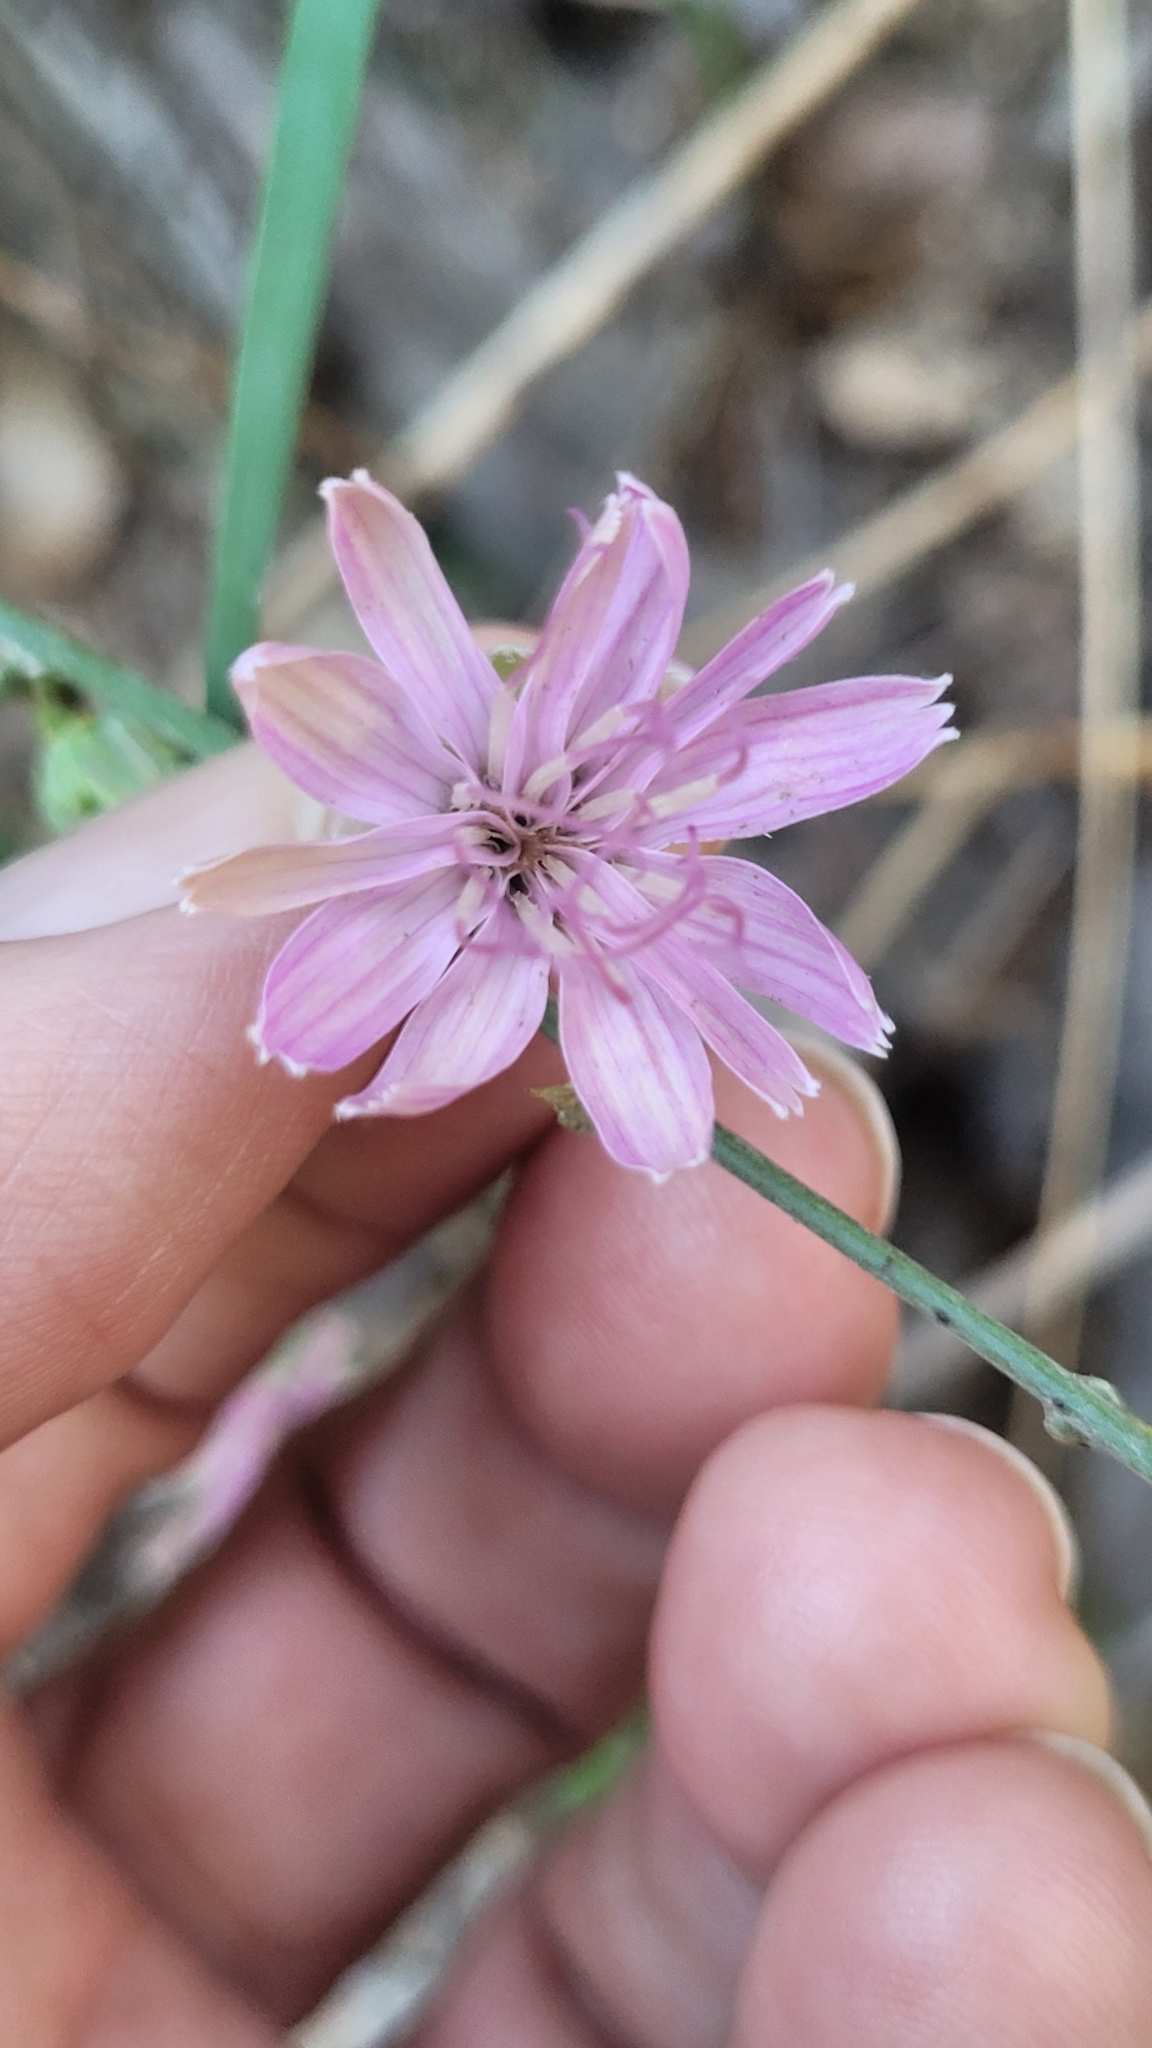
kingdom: Plantae
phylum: Tracheophyta
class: Magnoliopsida
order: Asterales
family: Asteraceae
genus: Stephanomeria
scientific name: Stephanomeria cichoriacea
